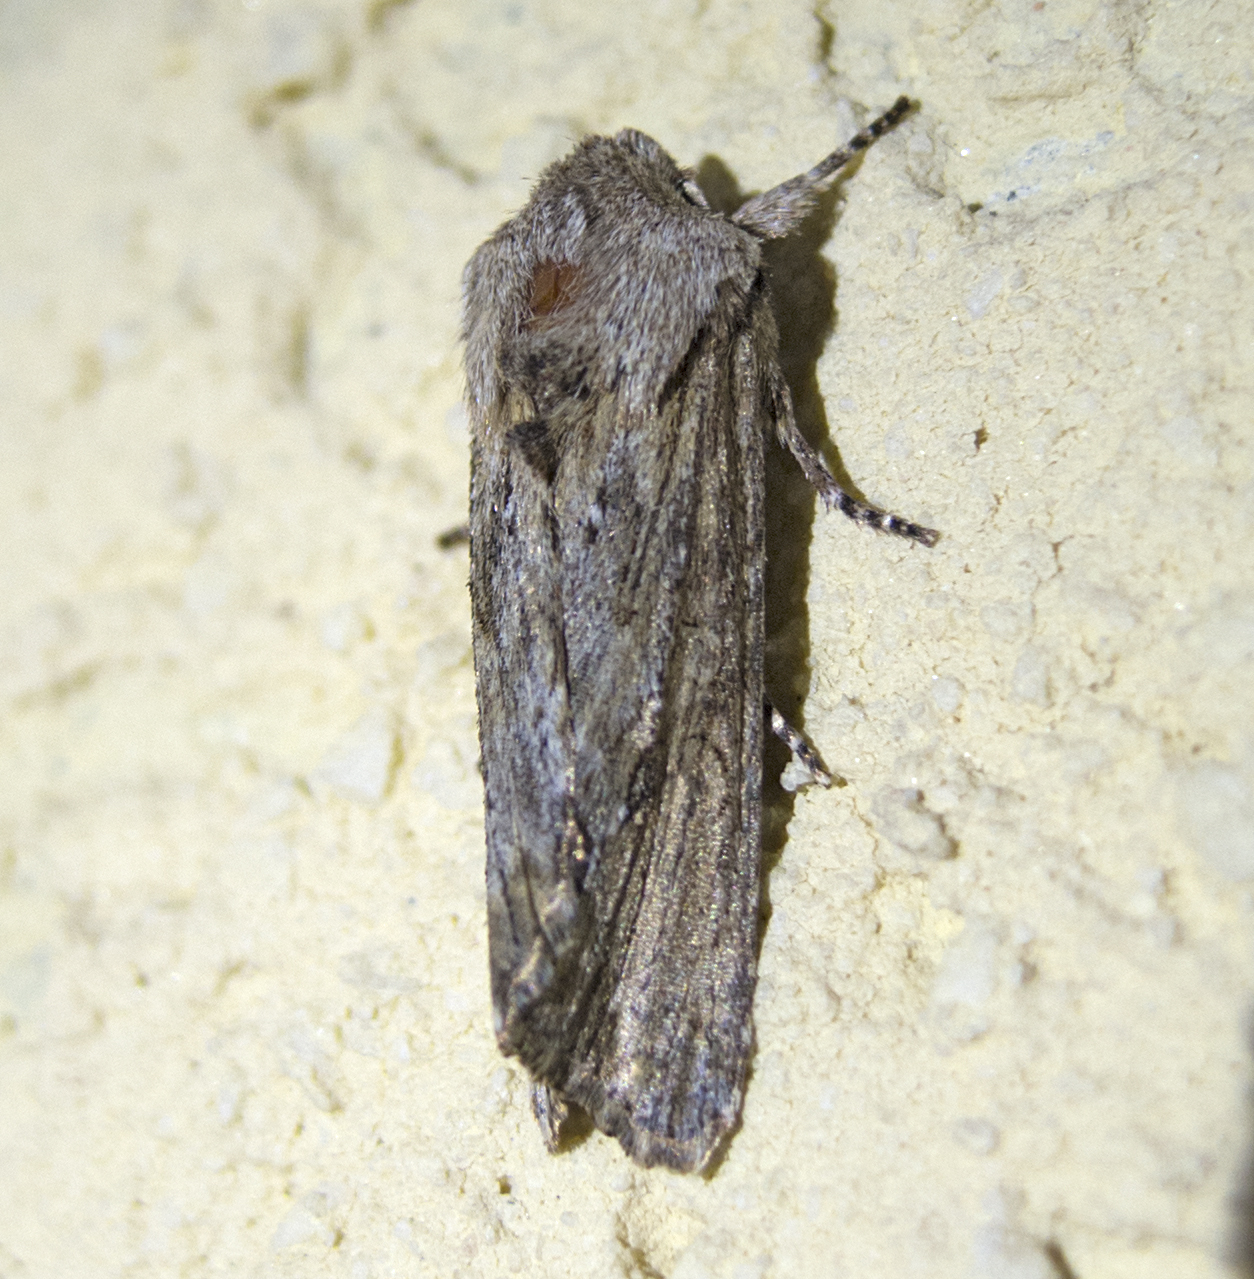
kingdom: Animalia
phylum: Arthropoda
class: Insecta
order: Lepidoptera
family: Noctuidae
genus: Egira
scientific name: Egira
